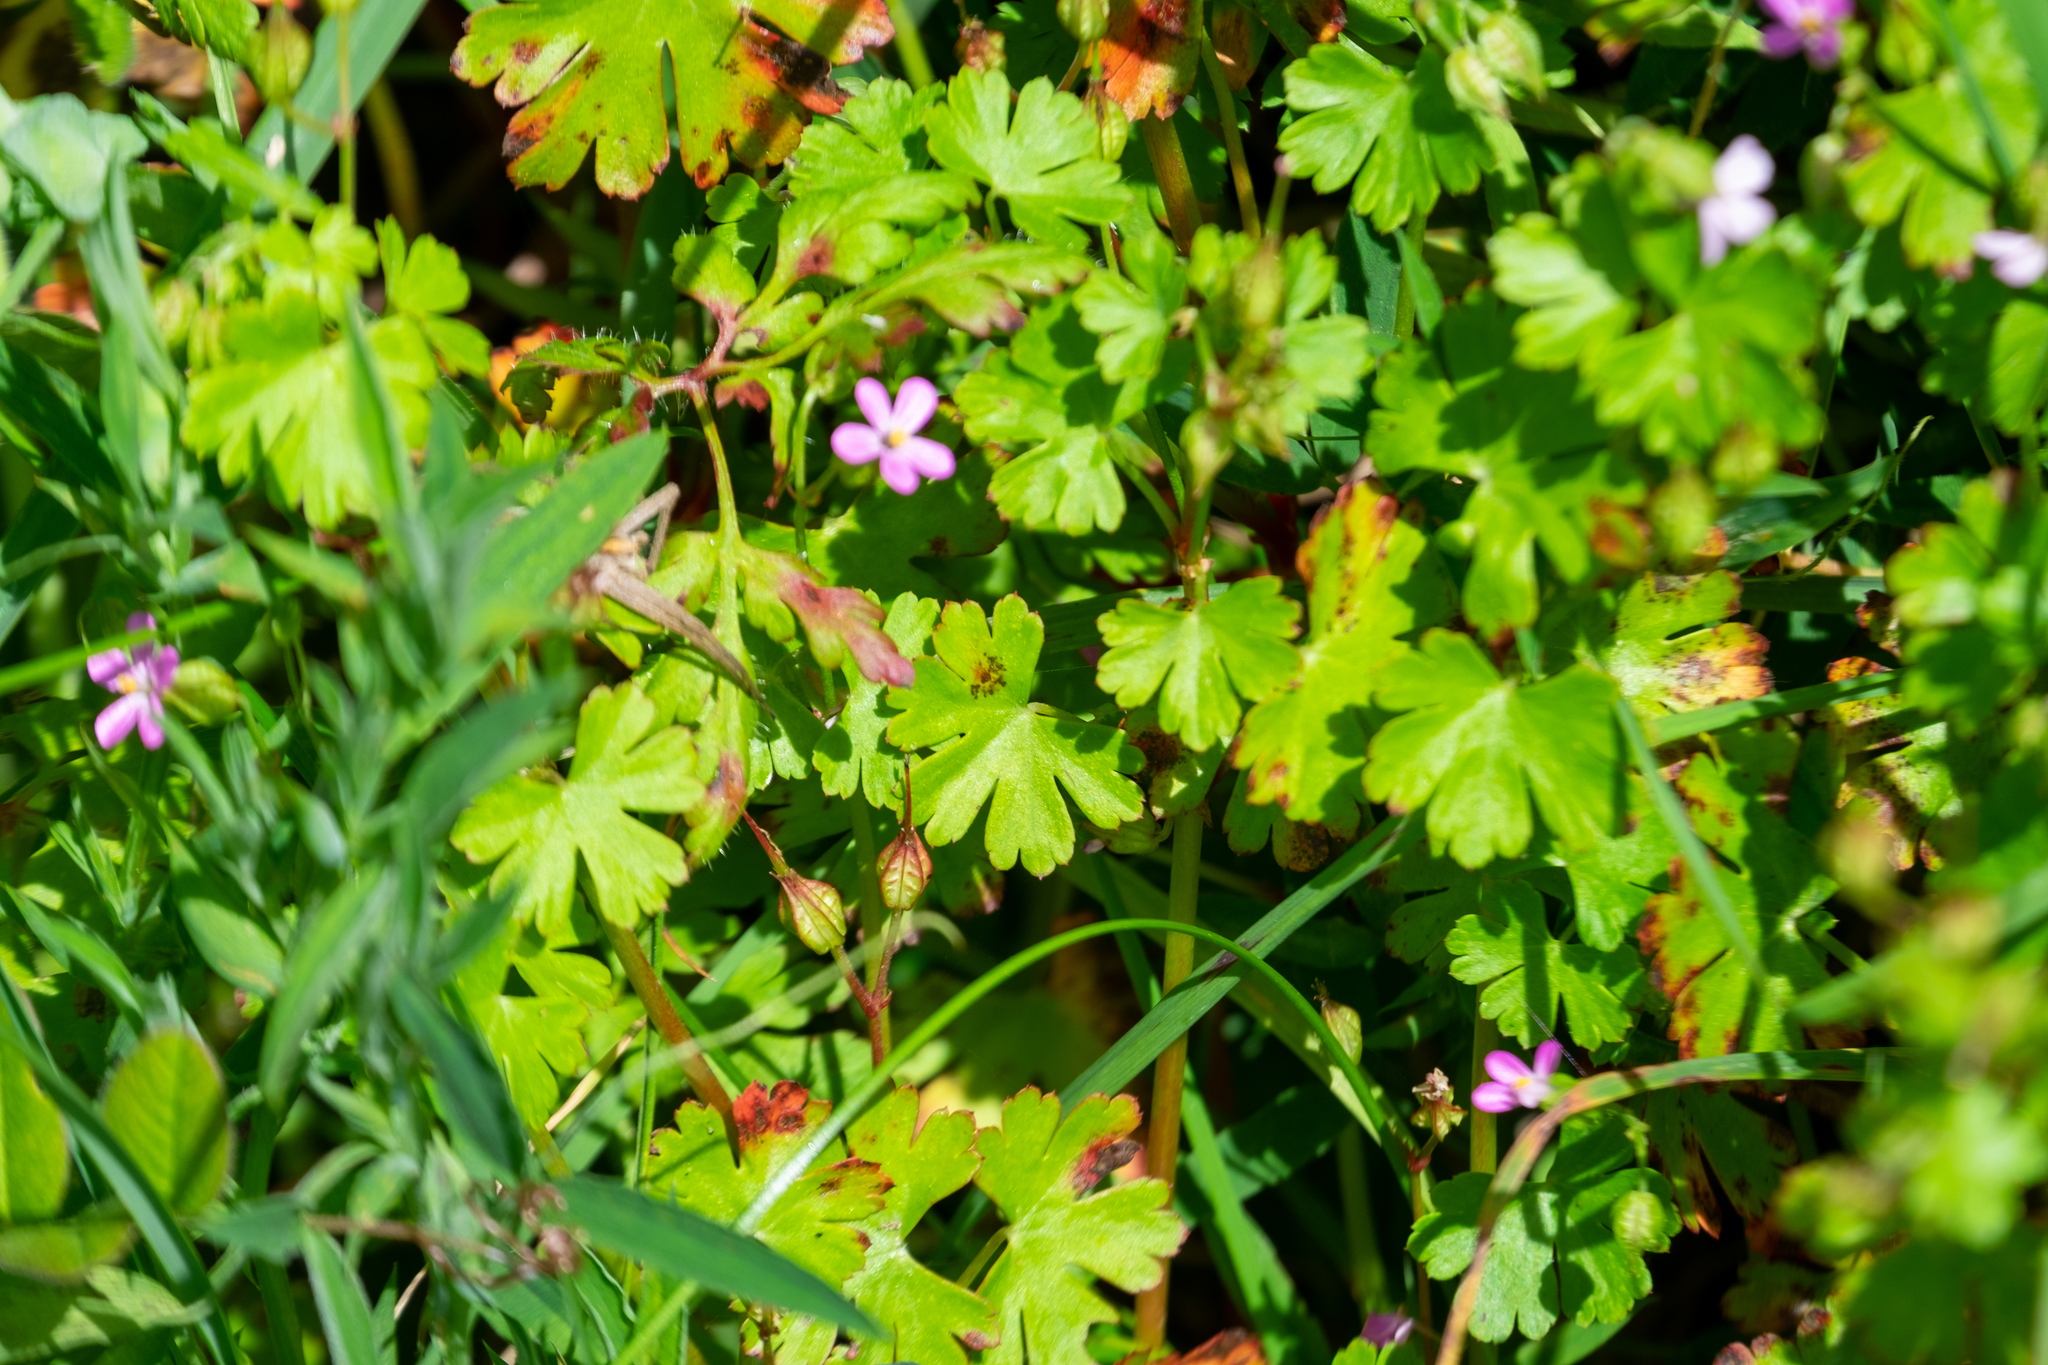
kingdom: Plantae
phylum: Tracheophyta
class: Magnoliopsida
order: Geraniales
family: Geraniaceae
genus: Geranium
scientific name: Geranium lucidum
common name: Shining crane's-bill
